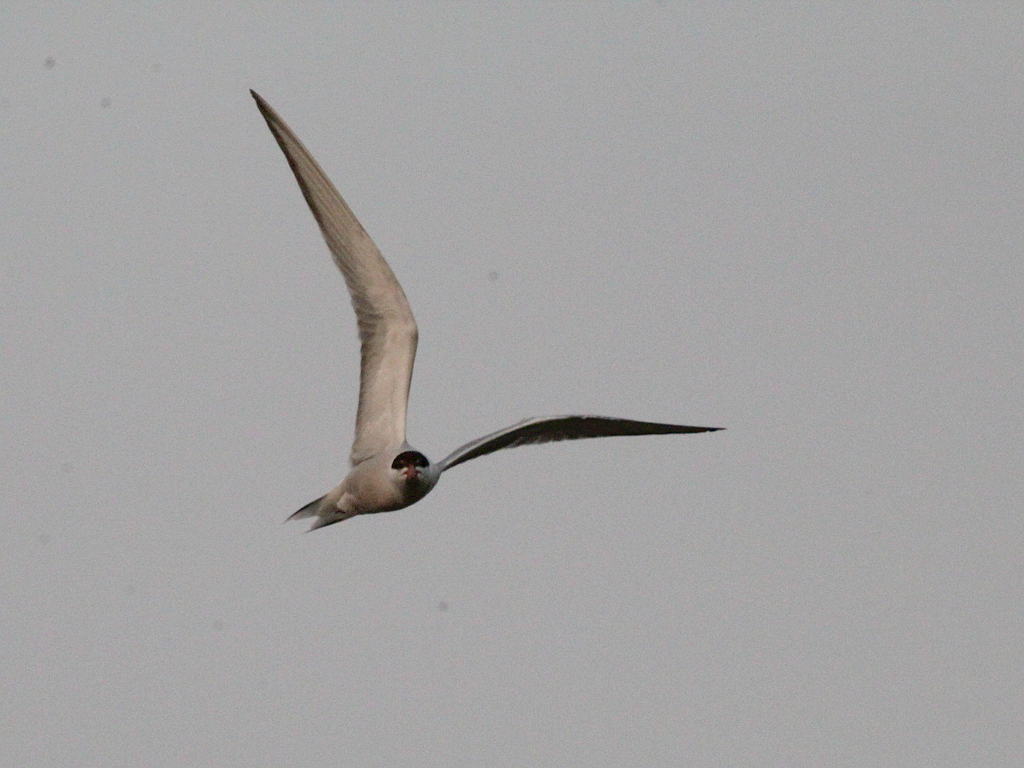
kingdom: Animalia
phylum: Chordata
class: Aves
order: Charadriiformes
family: Laridae
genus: Sterna
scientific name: Sterna hirundo
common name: Common tern
